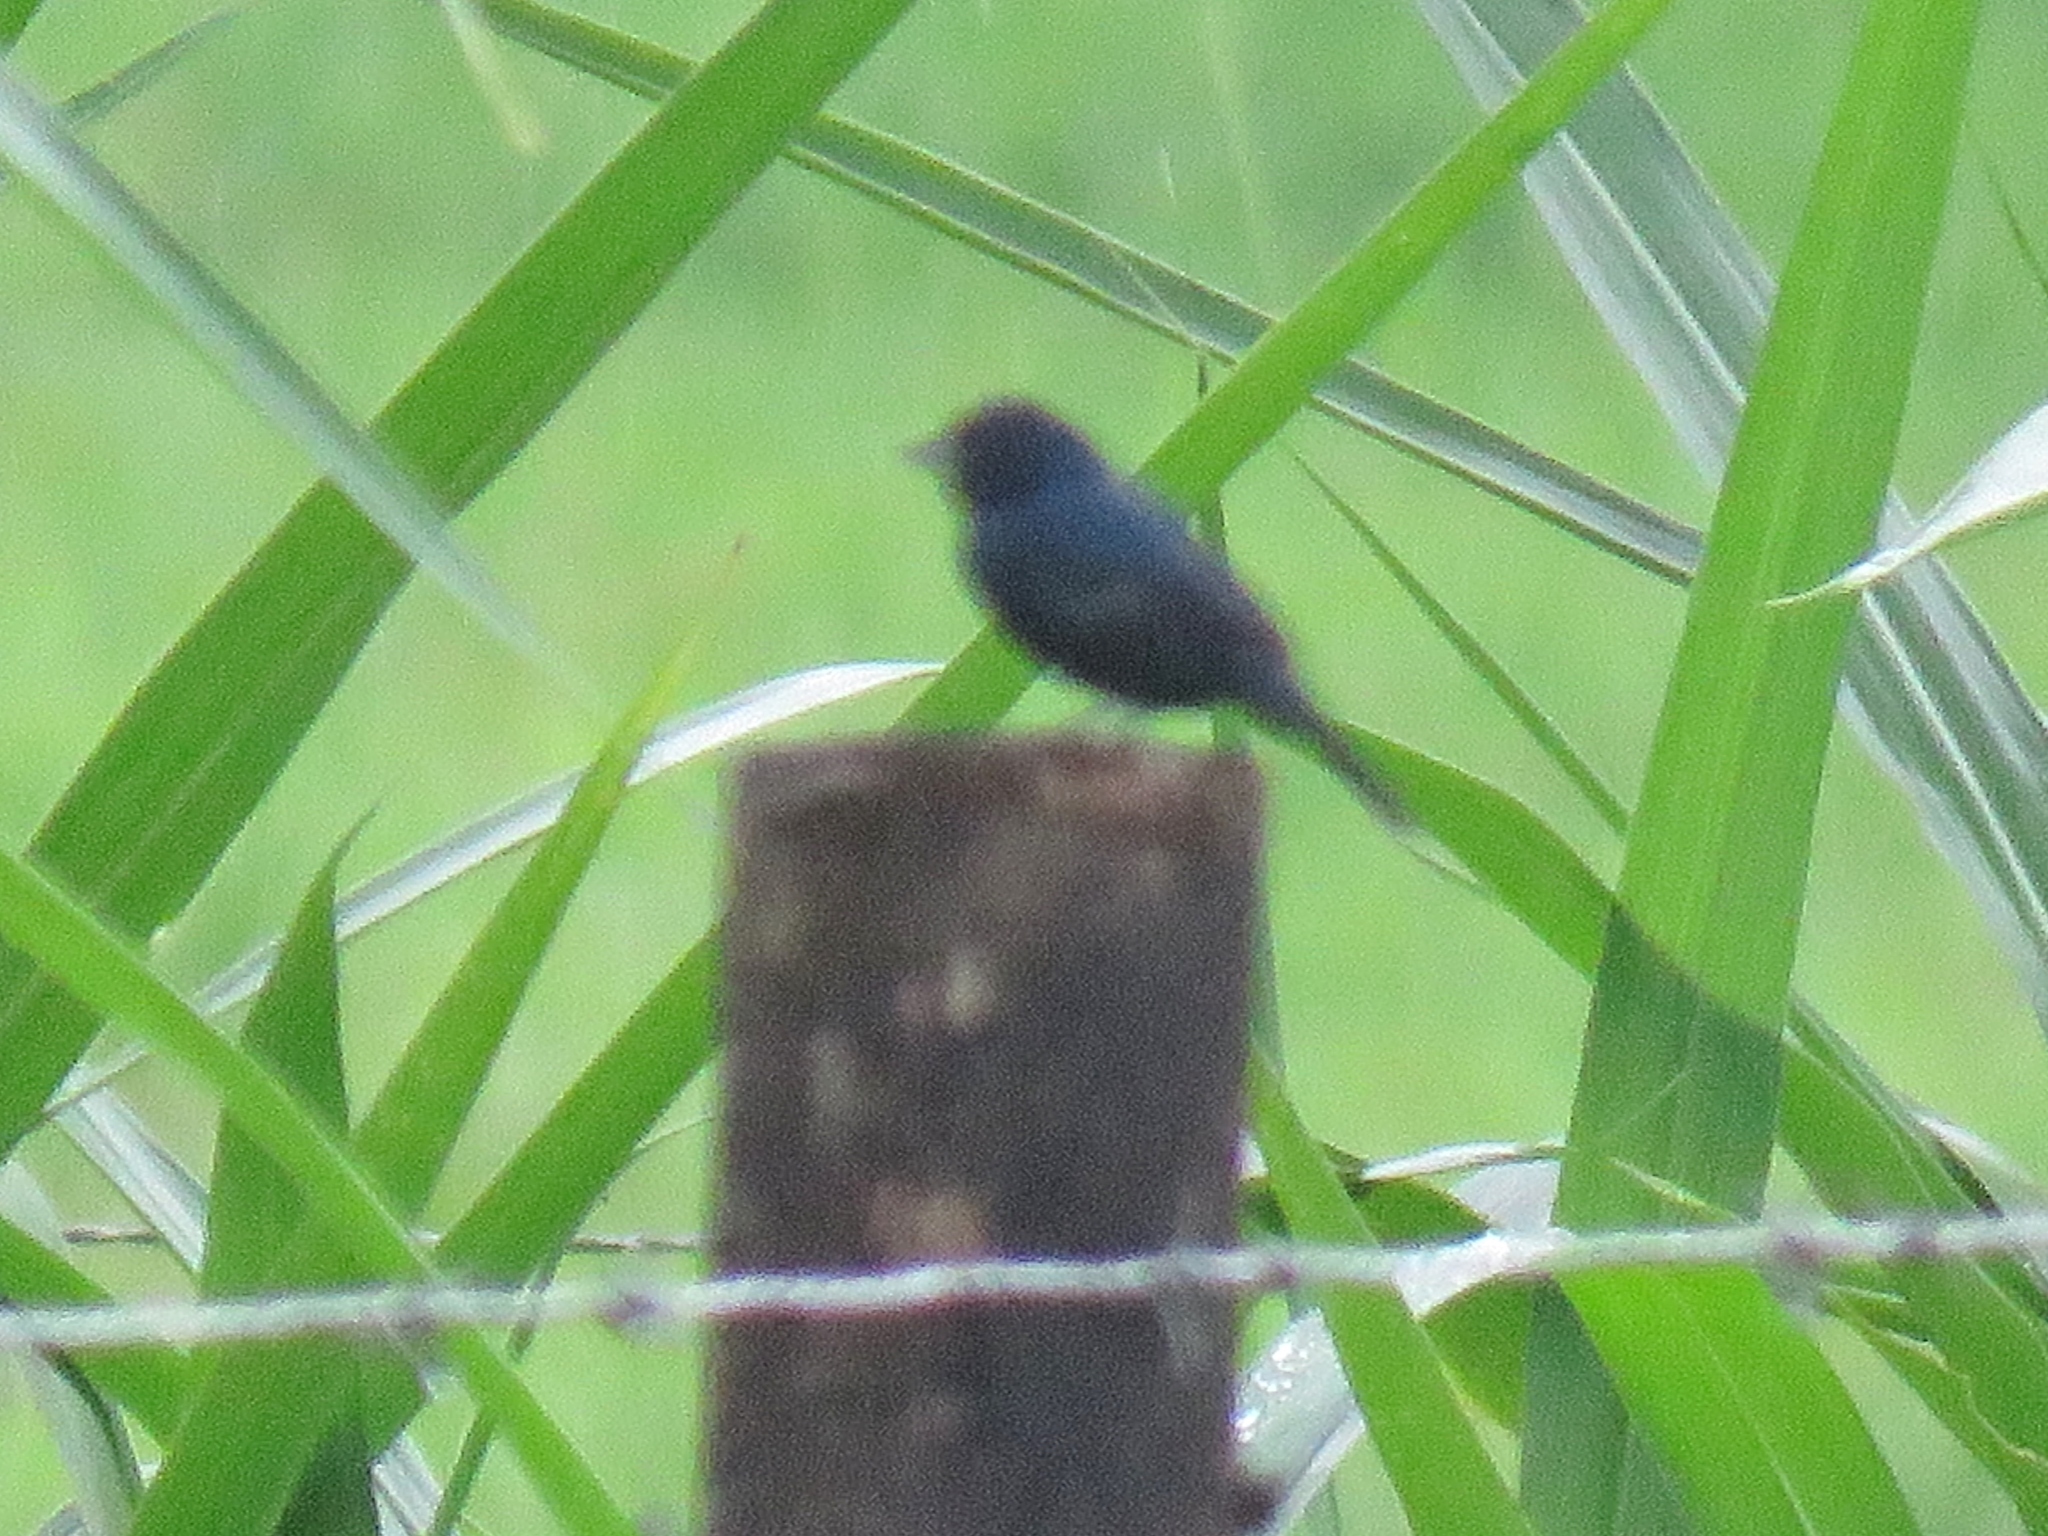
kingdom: Animalia
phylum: Chordata
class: Aves
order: Passeriformes
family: Thraupidae
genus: Volatinia
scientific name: Volatinia jacarina
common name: Blue-black grassquit
